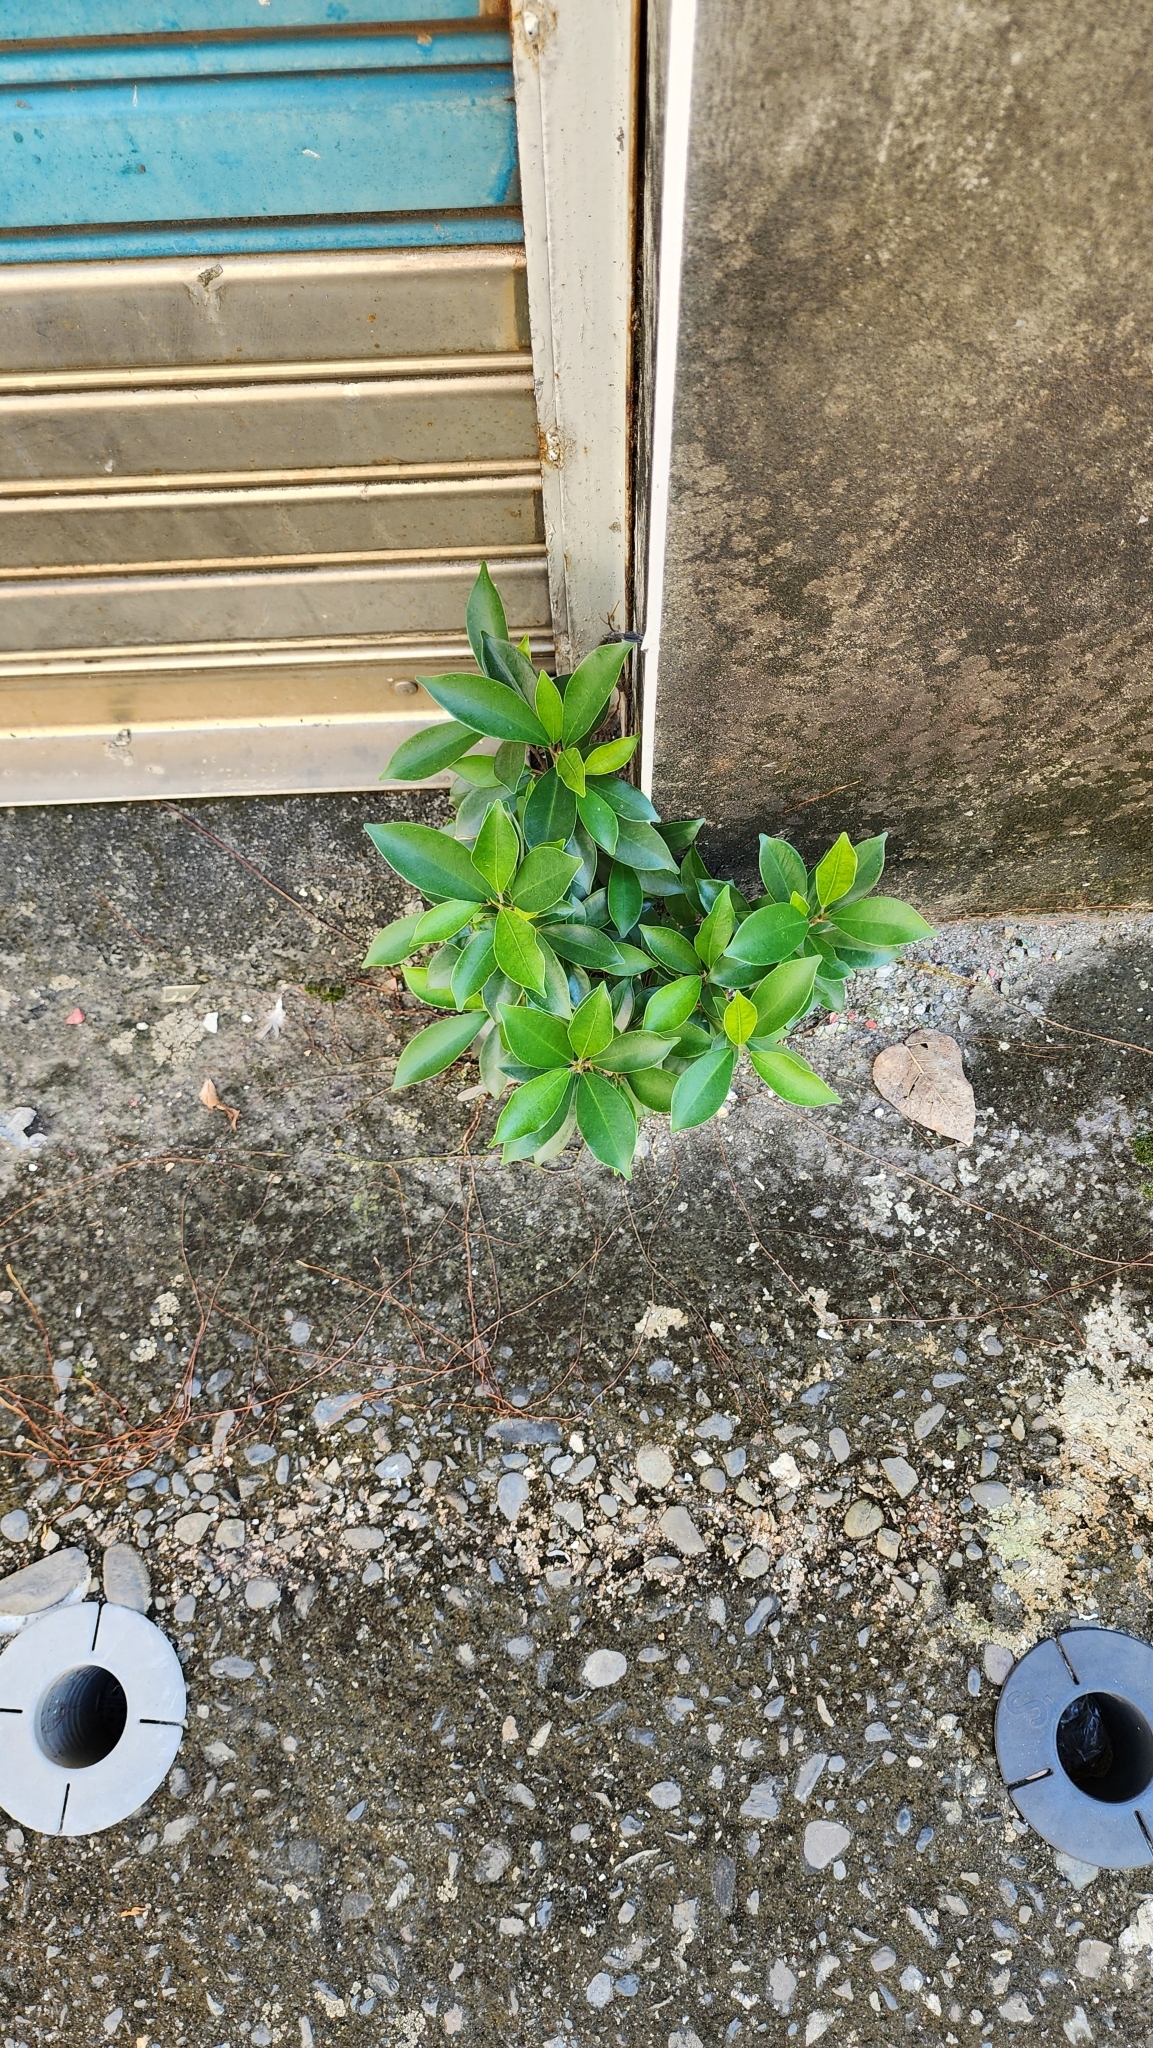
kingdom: Plantae
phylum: Tracheophyta
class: Magnoliopsida
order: Rosales
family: Moraceae
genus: Ficus
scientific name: Ficus microcarpa
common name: Chinese banyan
